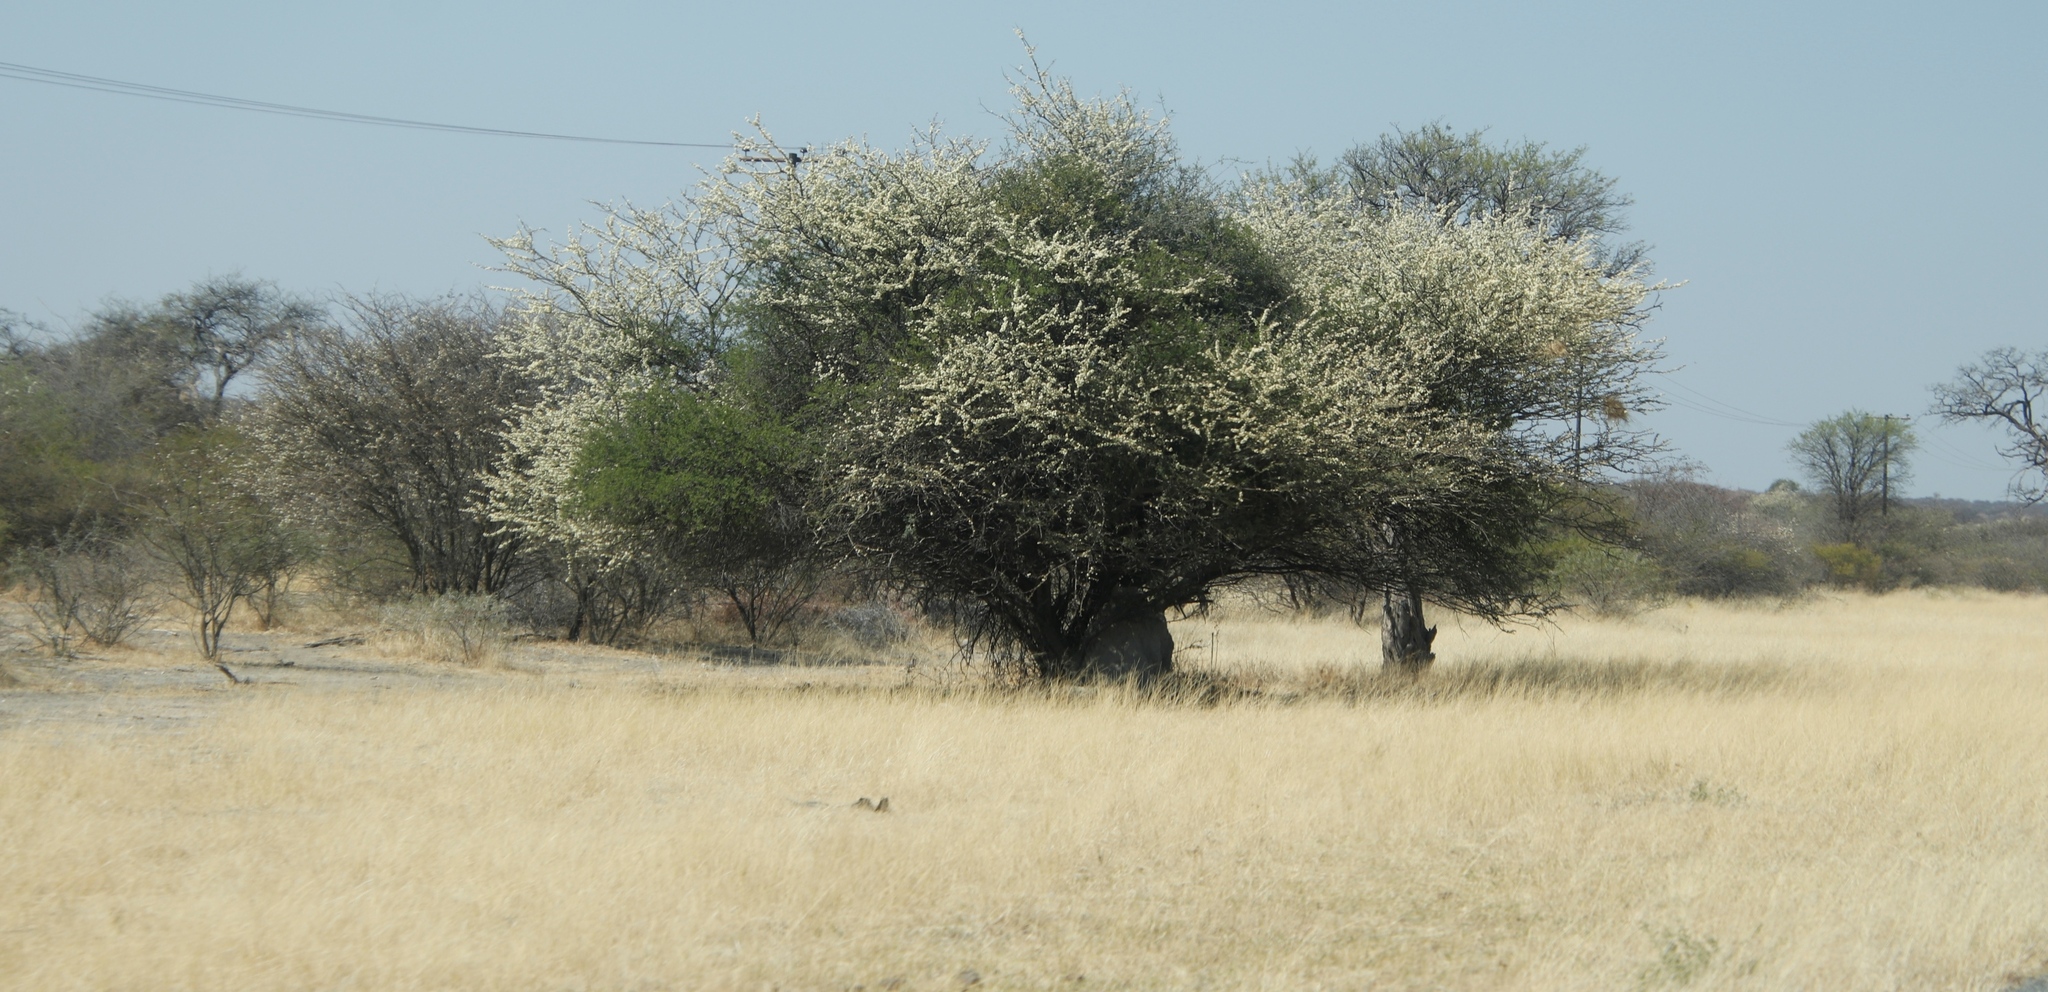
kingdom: Plantae
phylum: Tracheophyta
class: Magnoliopsida
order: Fabales
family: Fabaceae
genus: Senegalia
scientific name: Senegalia mellifera
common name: Hookthorn
